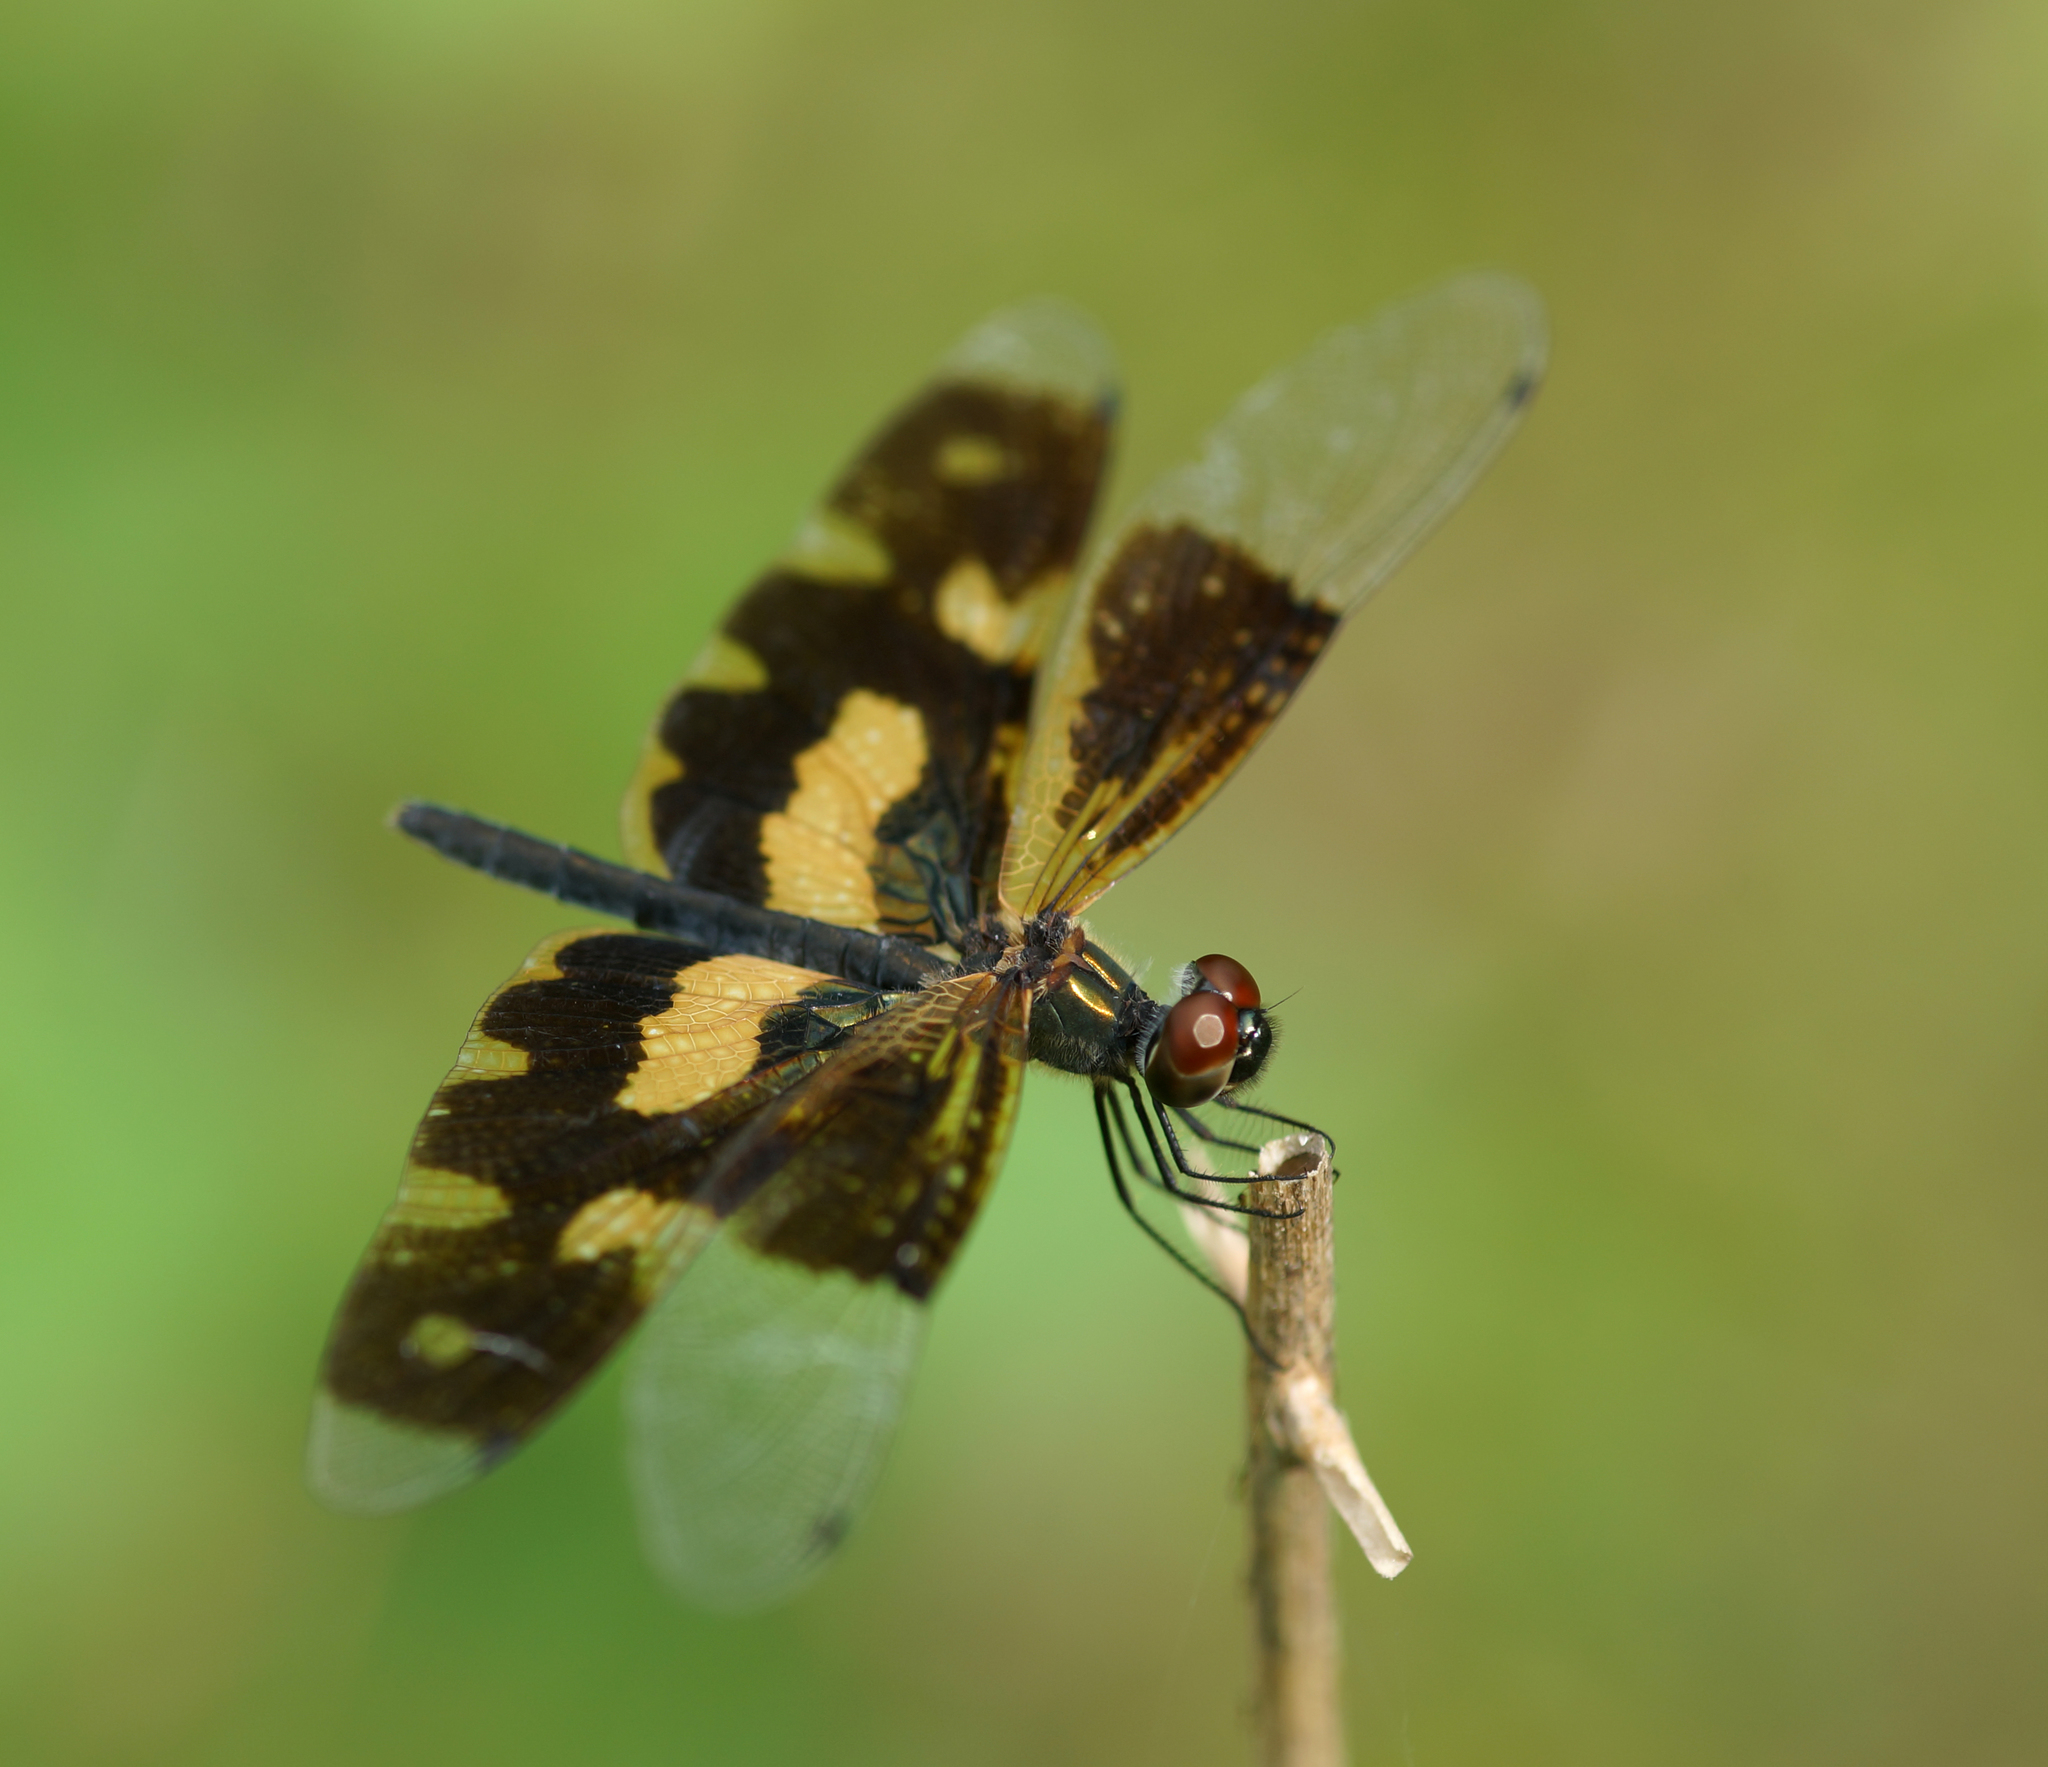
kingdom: Animalia
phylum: Arthropoda
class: Insecta
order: Odonata
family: Libellulidae
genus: Rhyothemis
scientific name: Rhyothemis variegata
